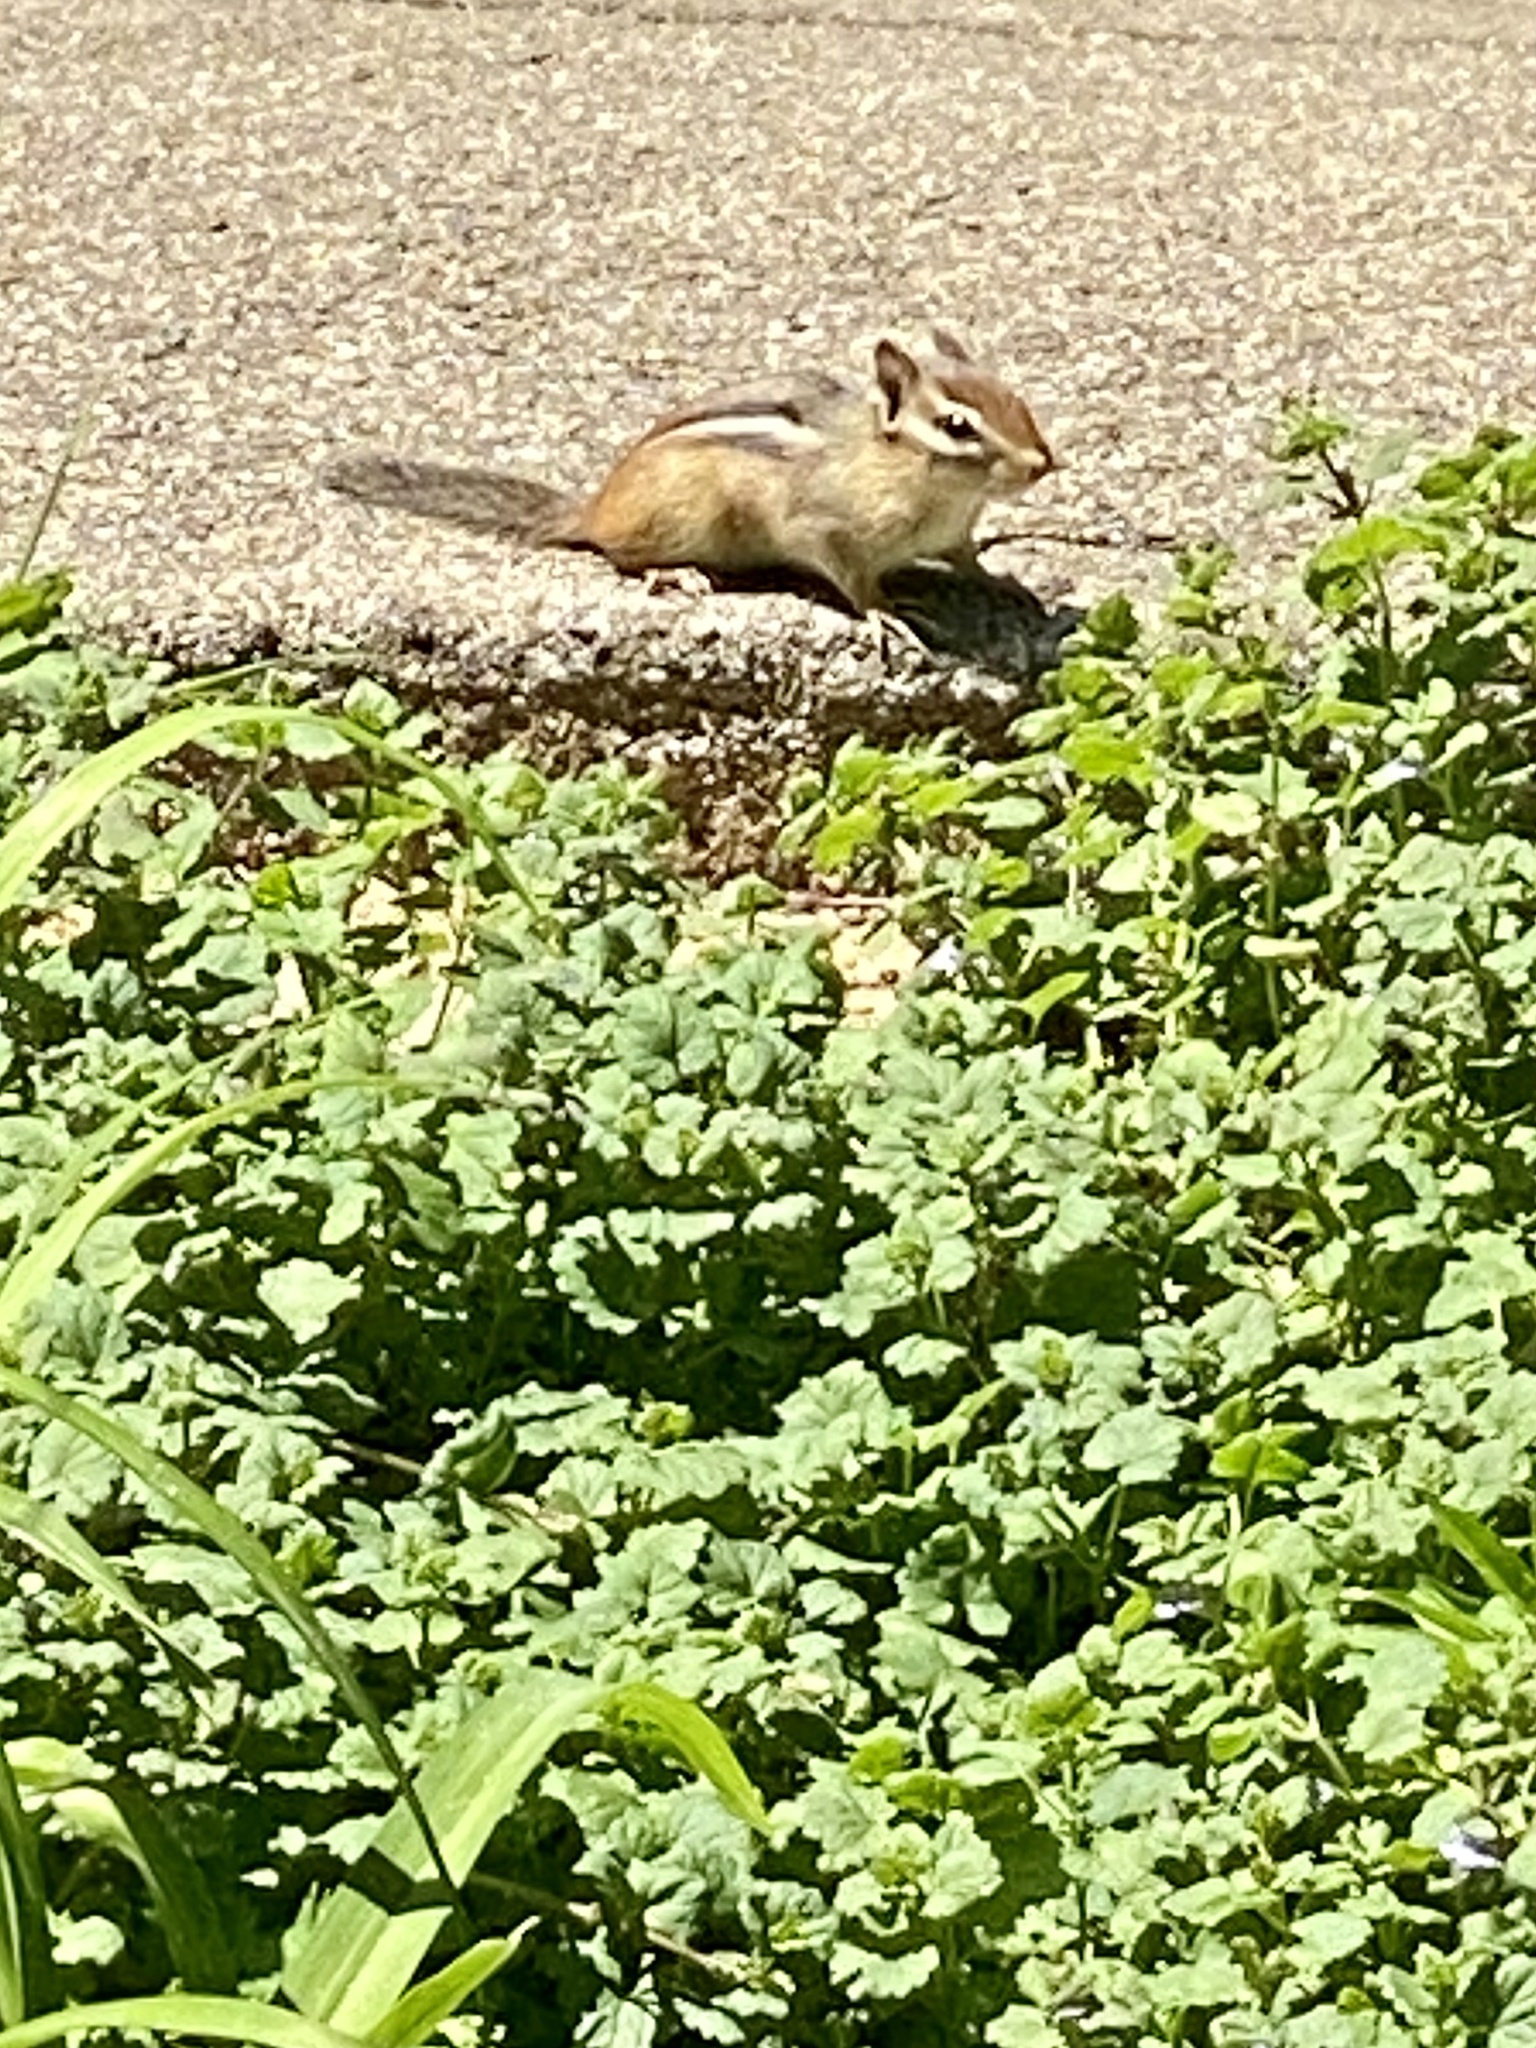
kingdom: Animalia
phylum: Chordata
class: Mammalia
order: Rodentia
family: Sciuridae
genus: Tamias
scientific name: Tamias striatus
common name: Eastern chipmunk
